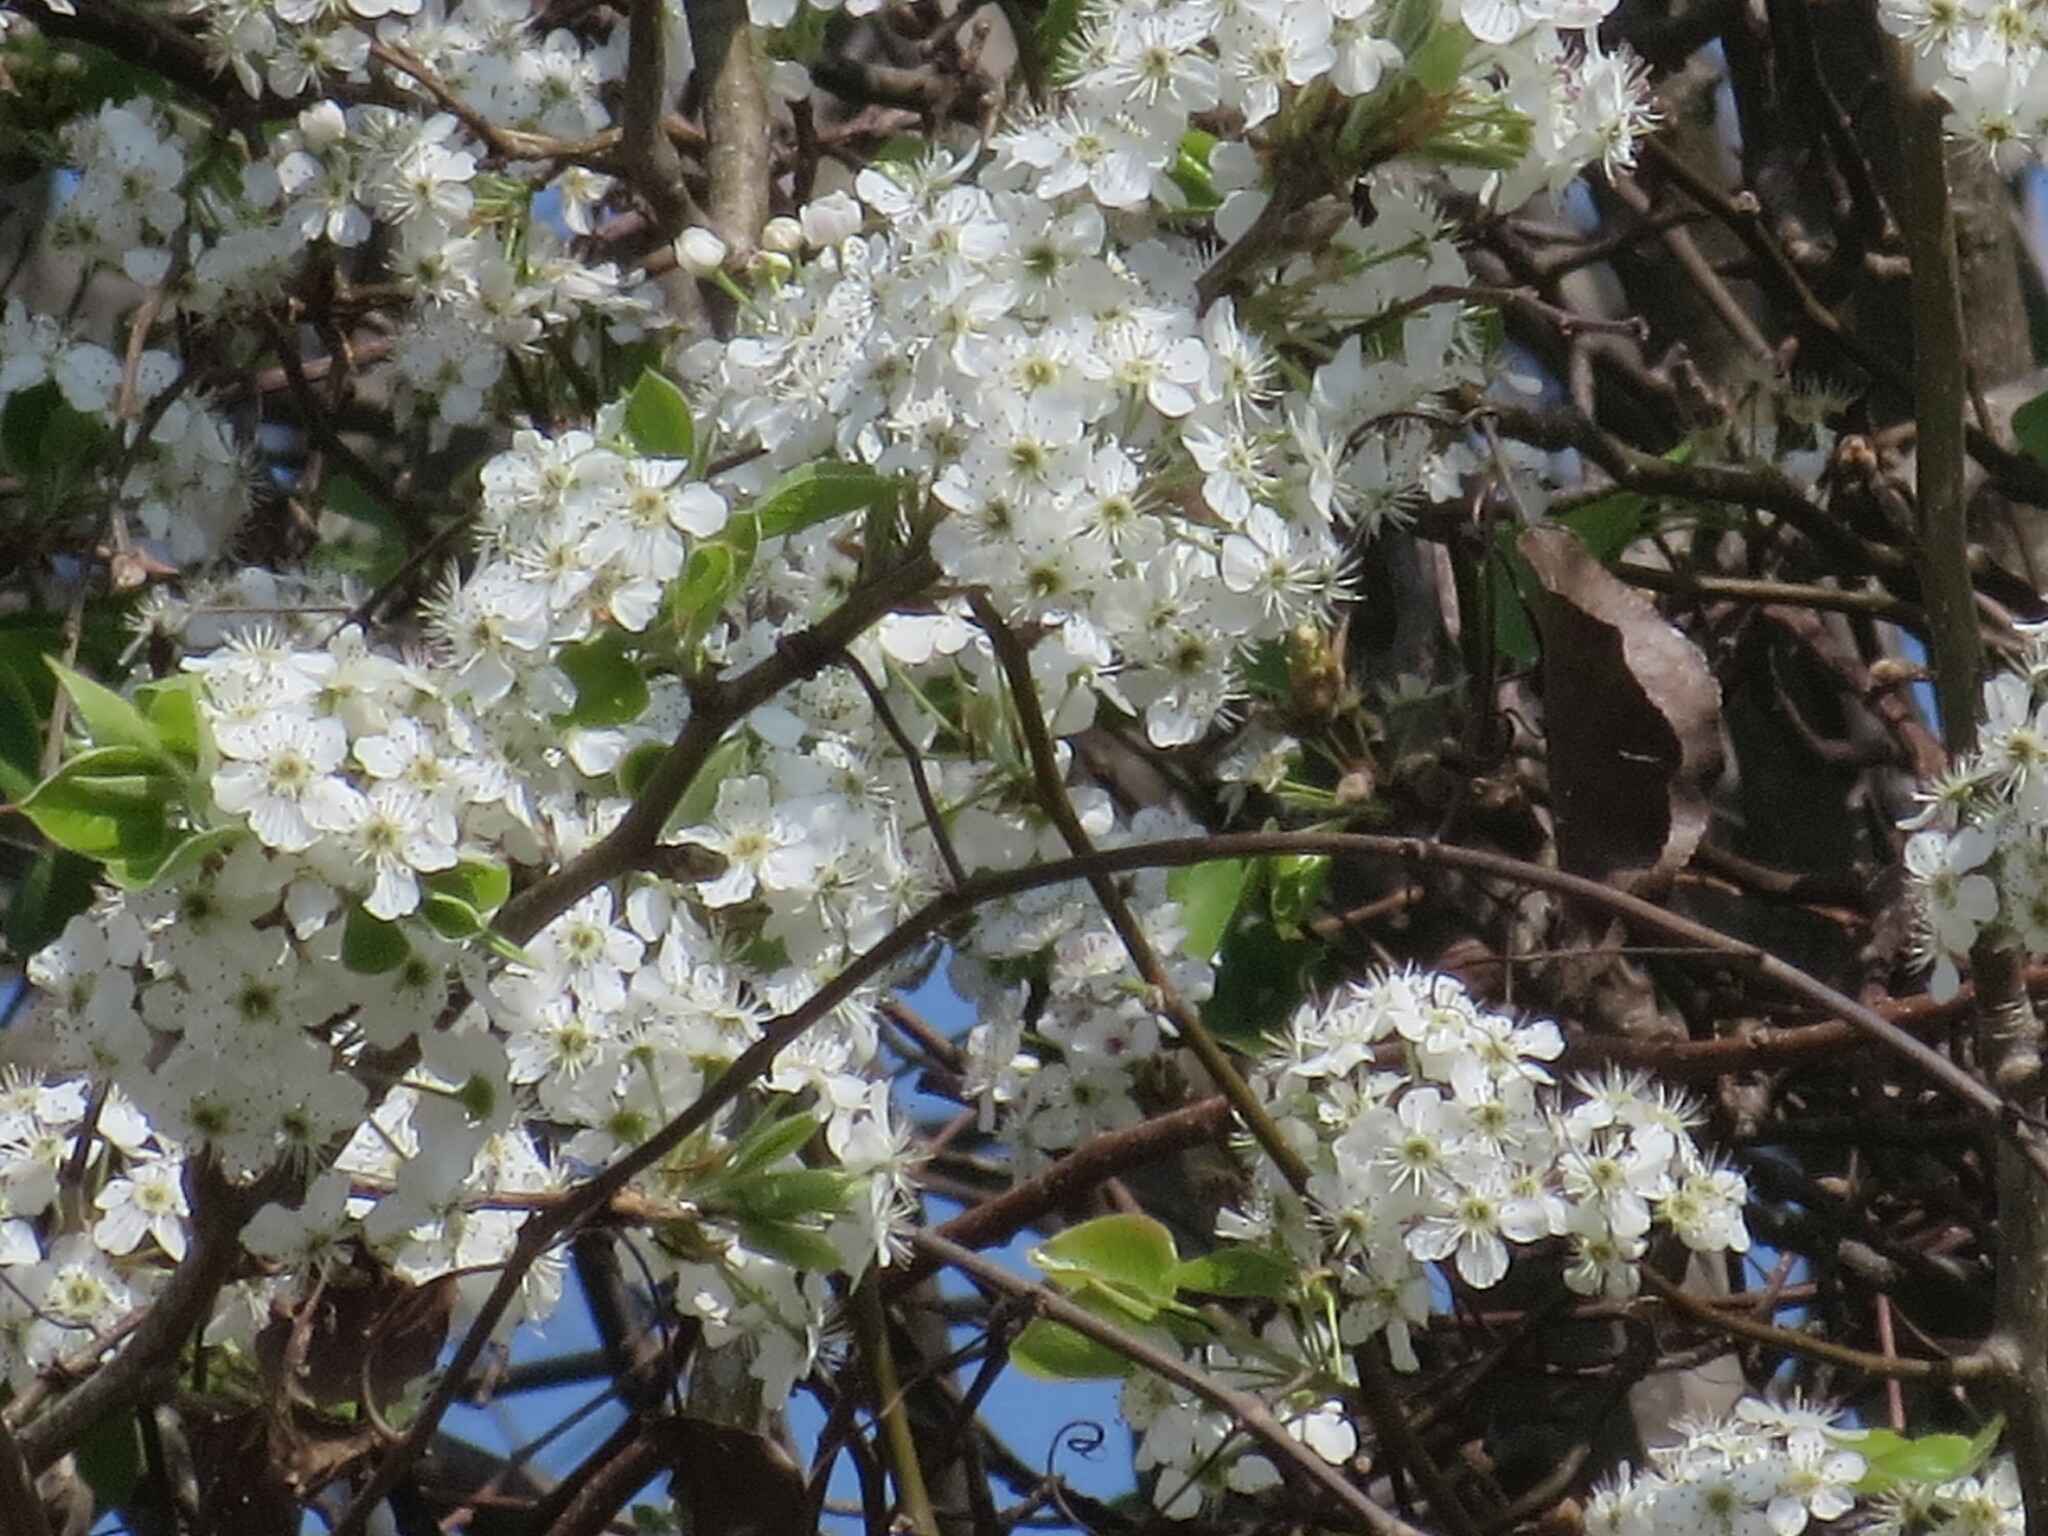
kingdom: Plantae
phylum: Tracheophyta
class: Magnoliopsida
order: Rosales
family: Rosaceae
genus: Pyrus
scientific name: Pyrus calleryana
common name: Callery pear
